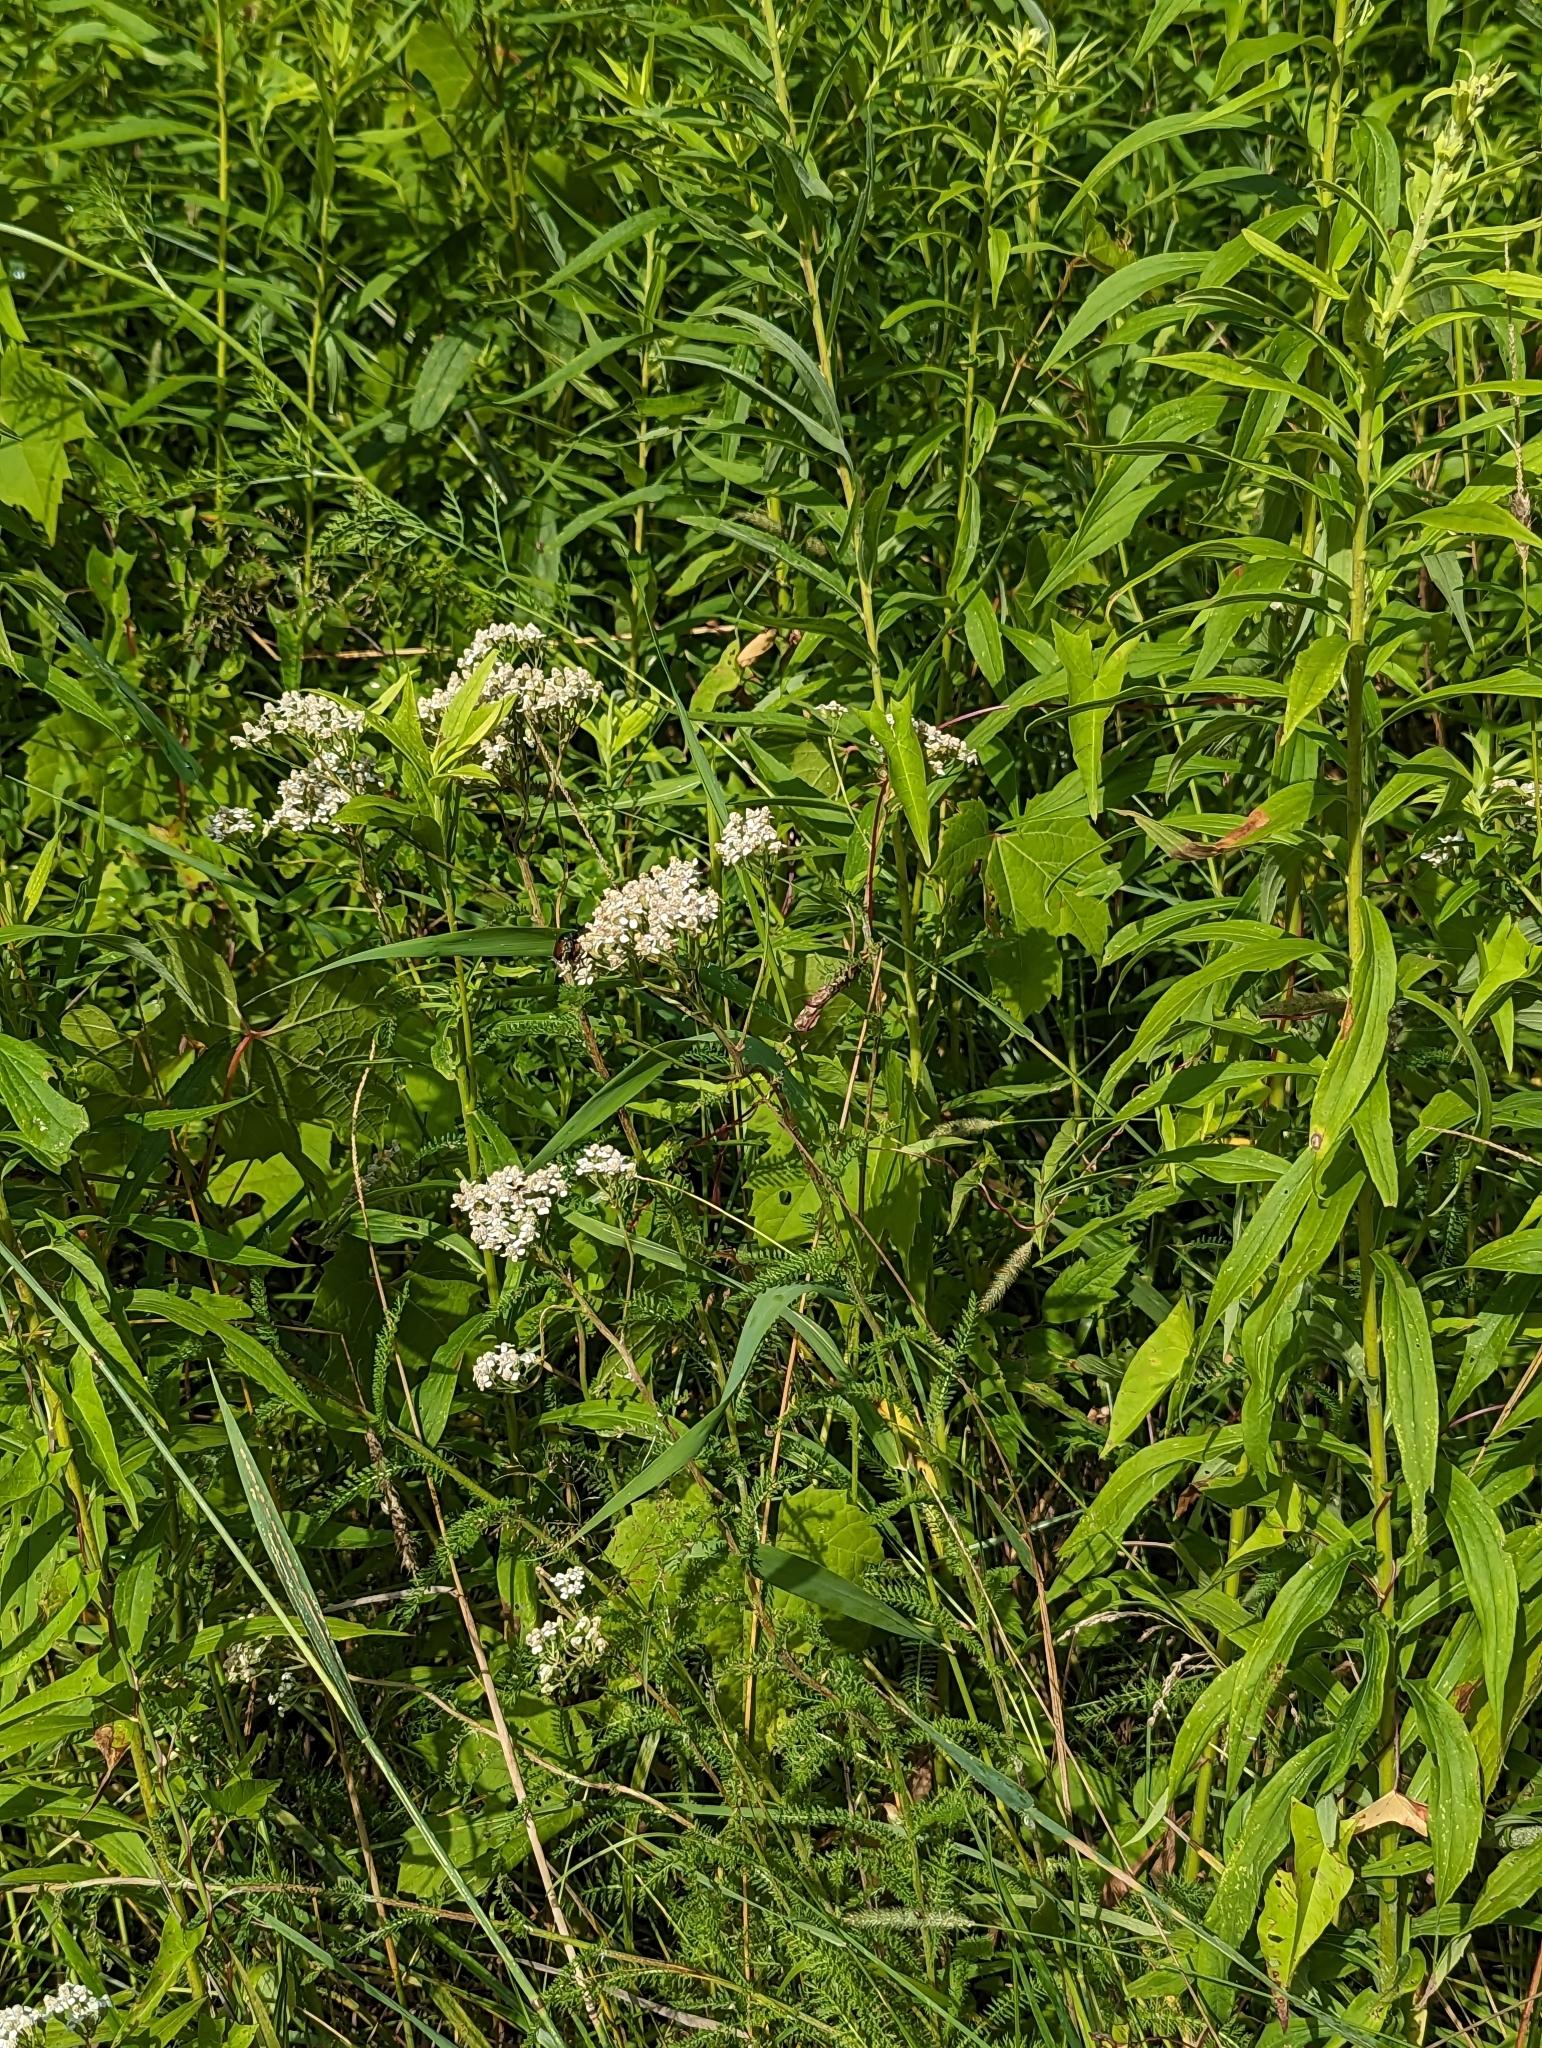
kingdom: Plantae
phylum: Tracheophyta
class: Magnoliopsida
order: Asterales
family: Asteraceae
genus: Achillea
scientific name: Achillea millefolium
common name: Yarrow
